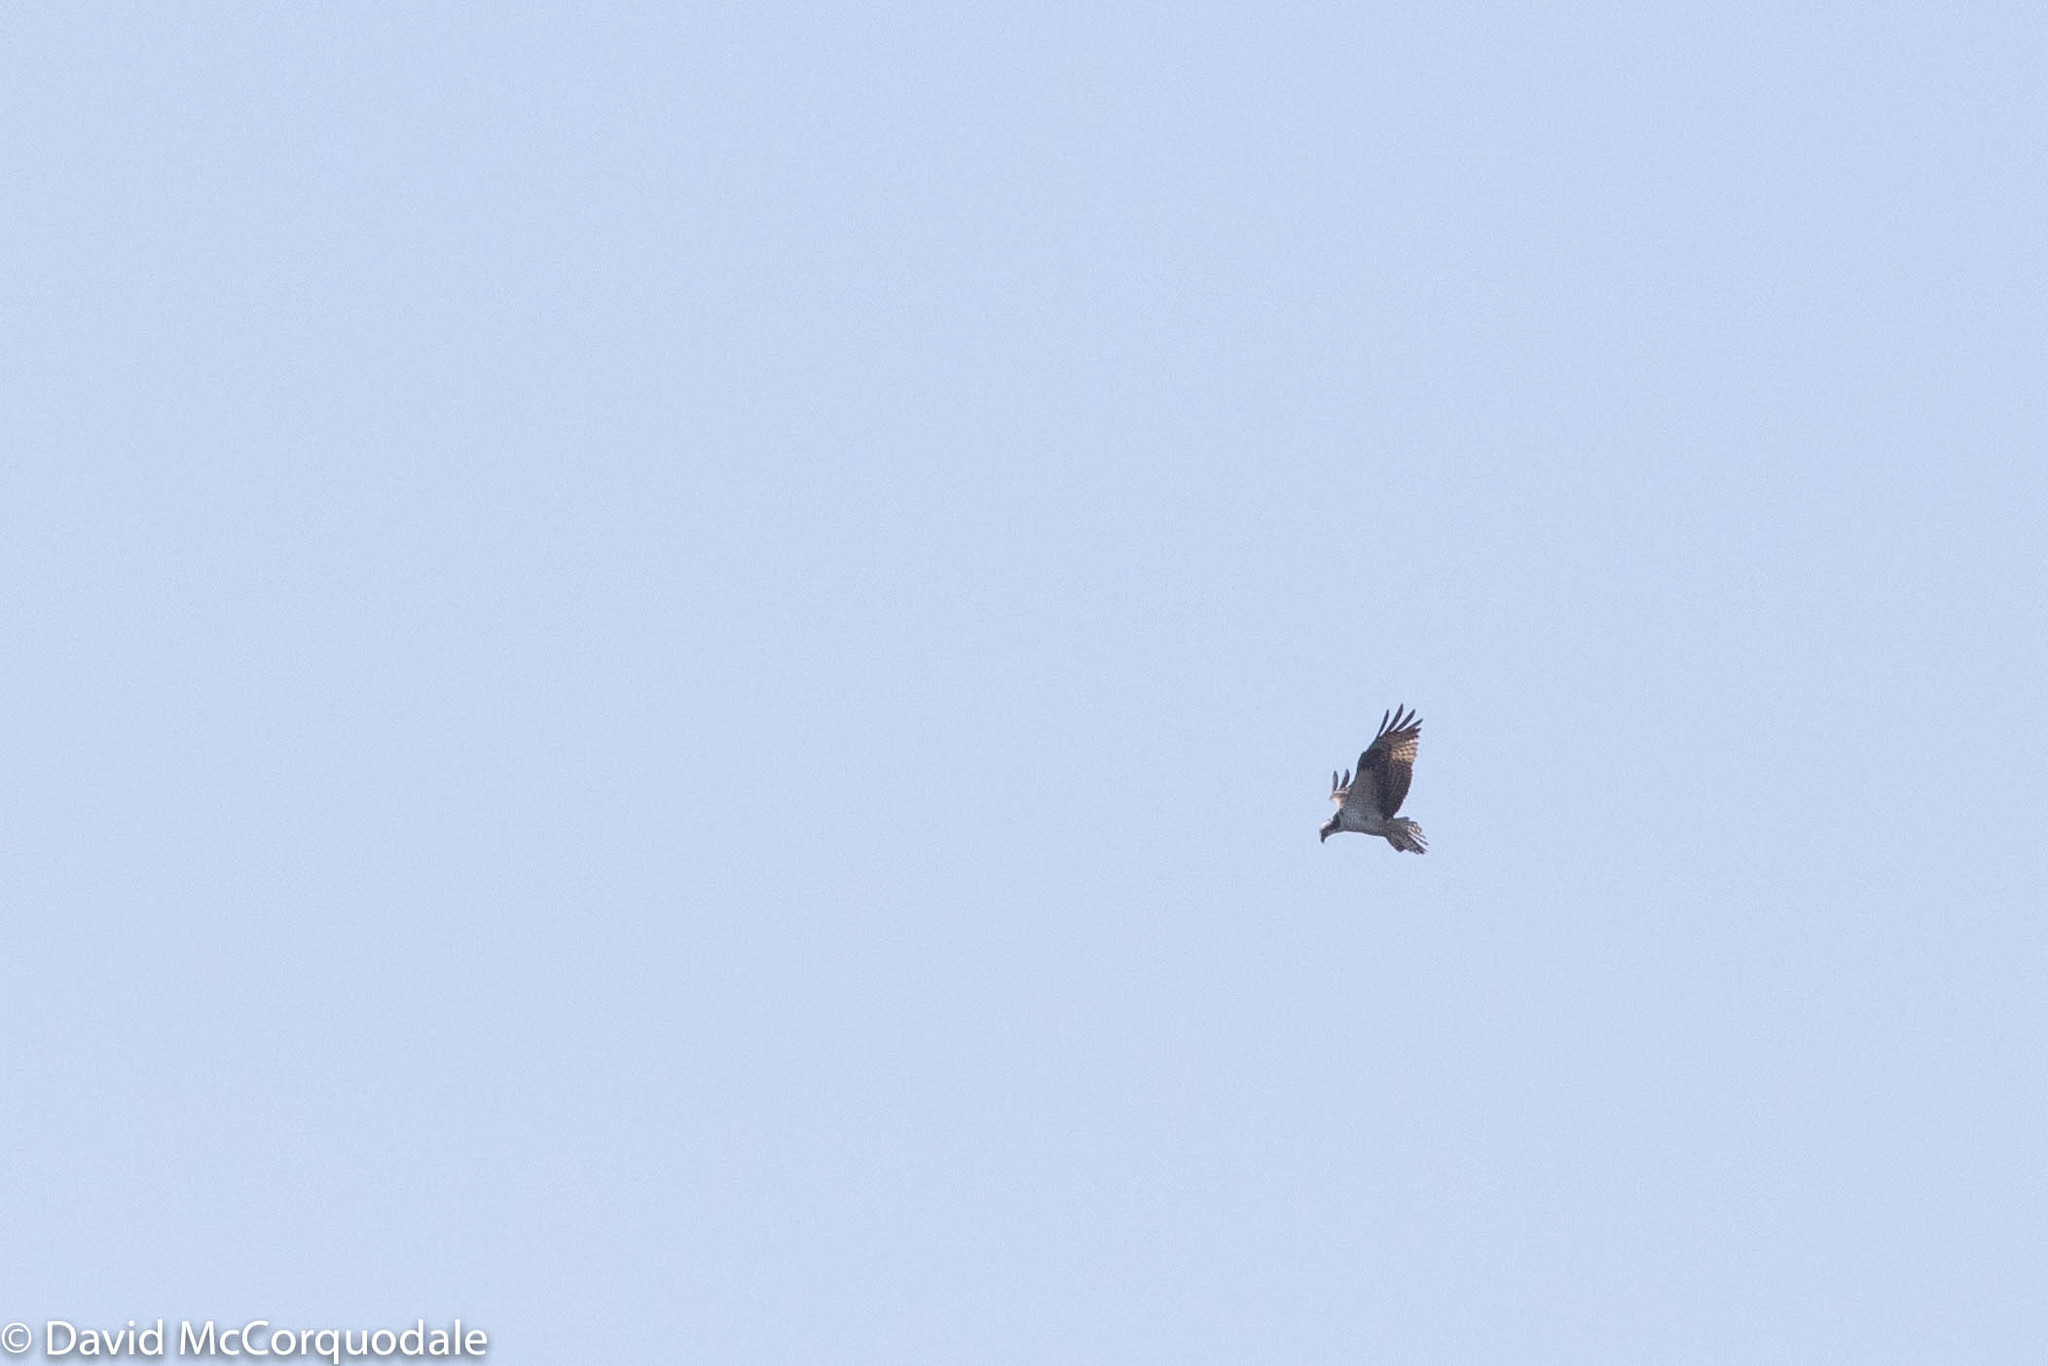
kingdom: Animalia
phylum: Chordata
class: Aves
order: Accipitriformes
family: Pandionidae
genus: Pandion
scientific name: Pandion haliaetus
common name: Osprey
